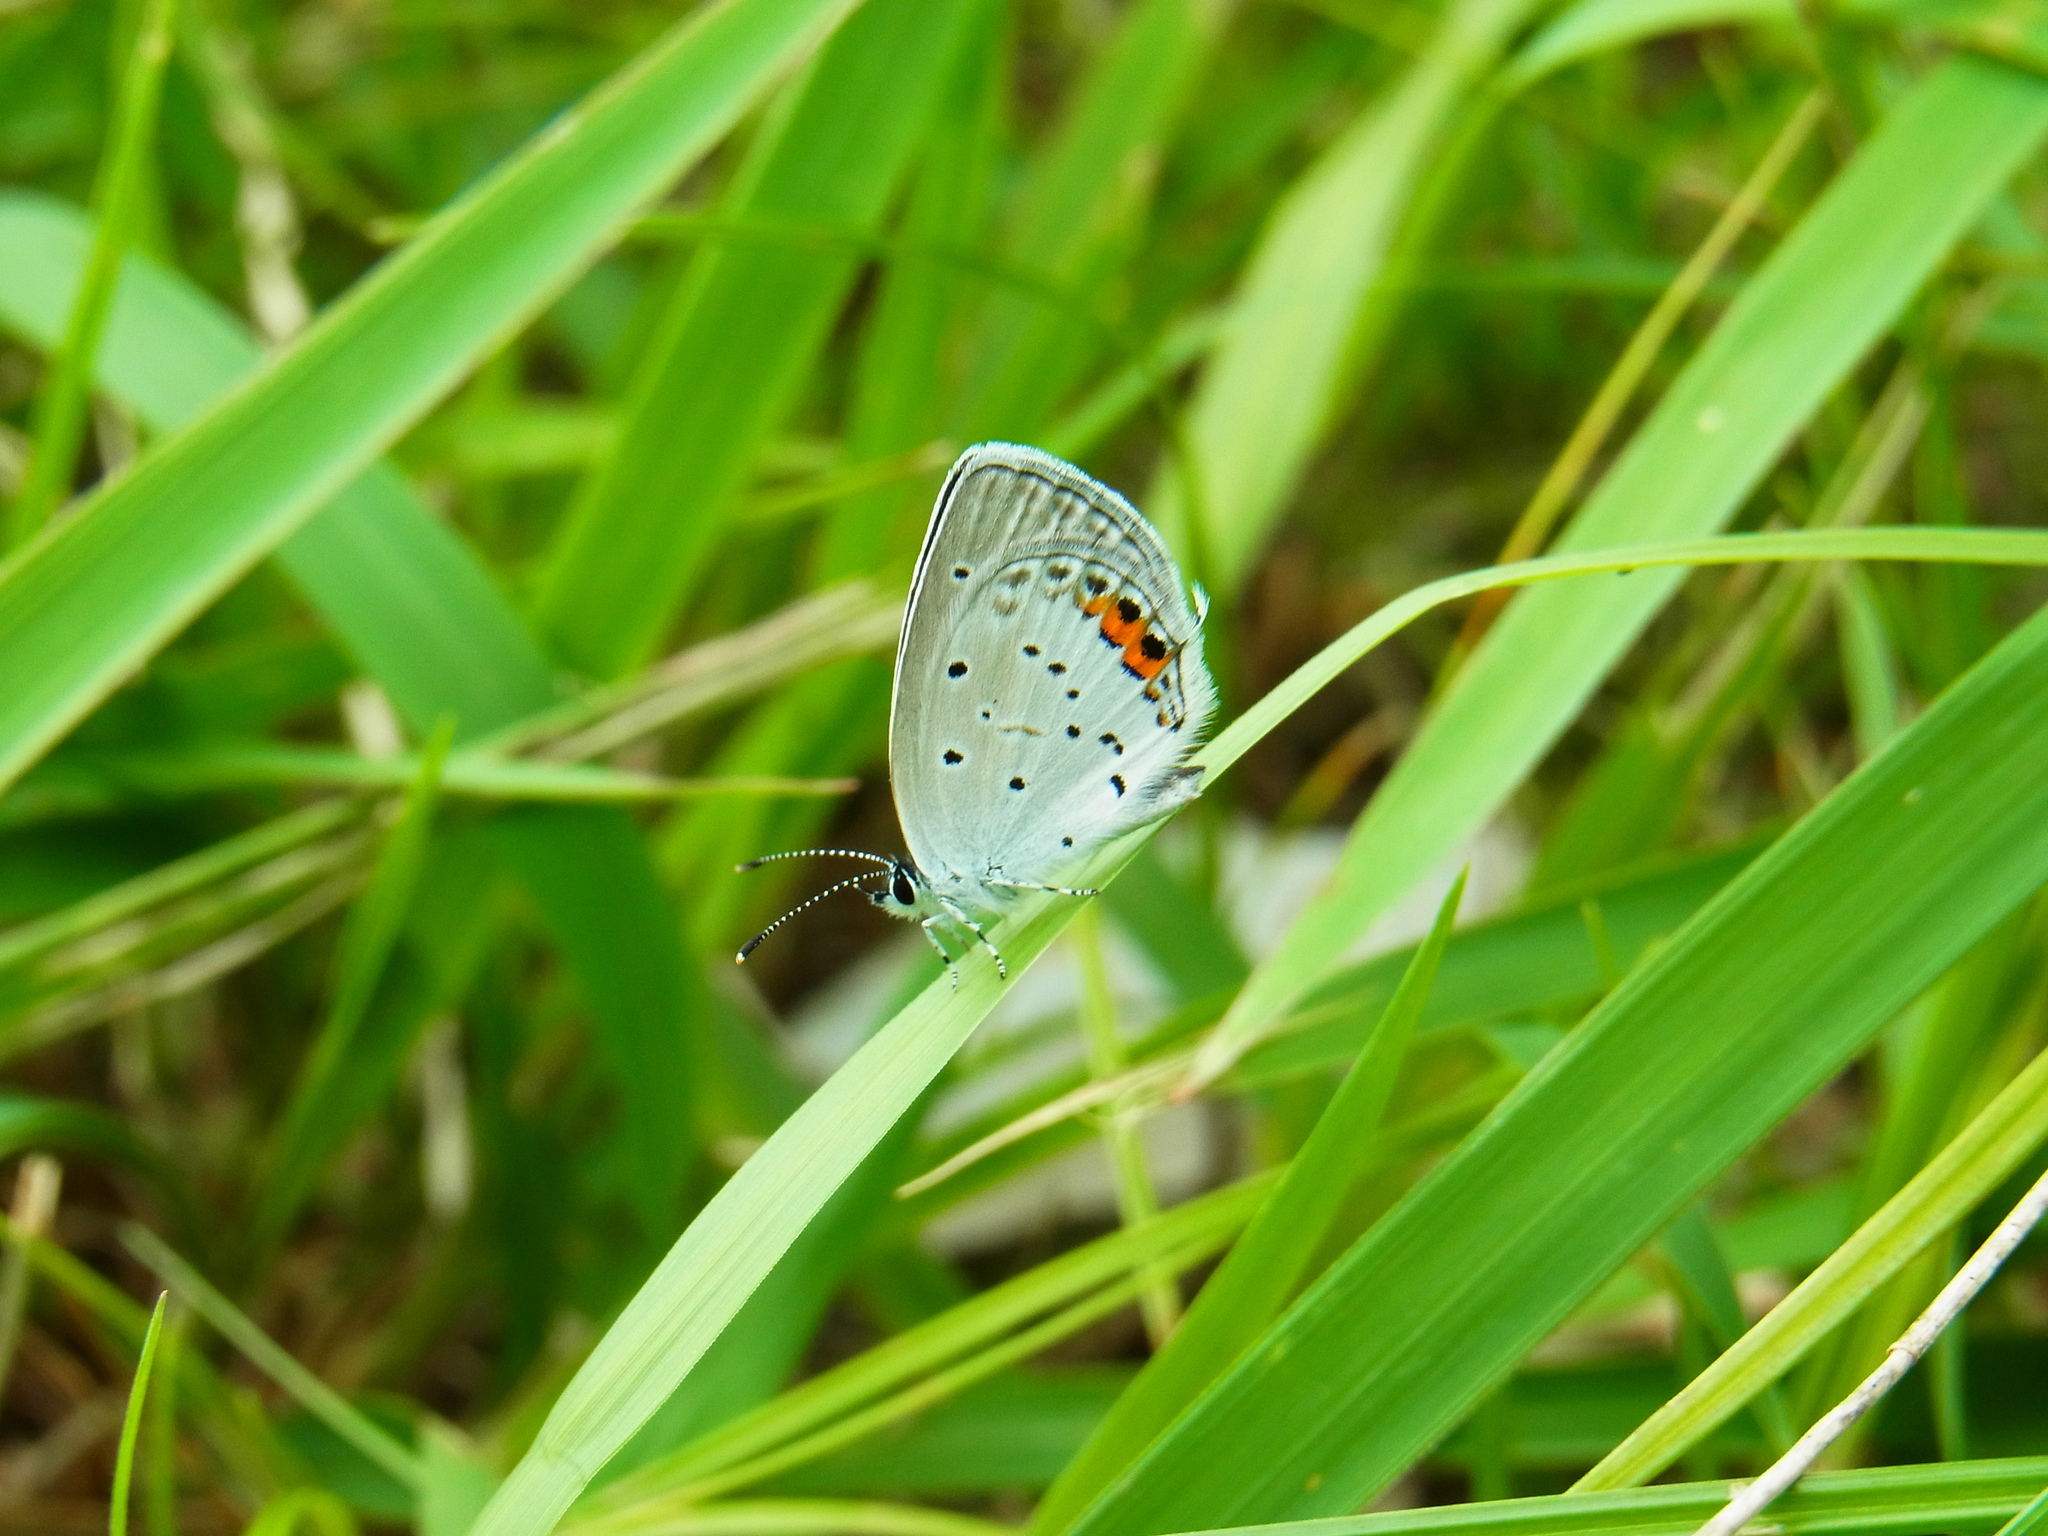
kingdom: Animalia
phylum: Arthropoda
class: Insecta
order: Lepidoptera
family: Lycaenidae
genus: Elkalyce
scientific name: Elkalyce argiades
